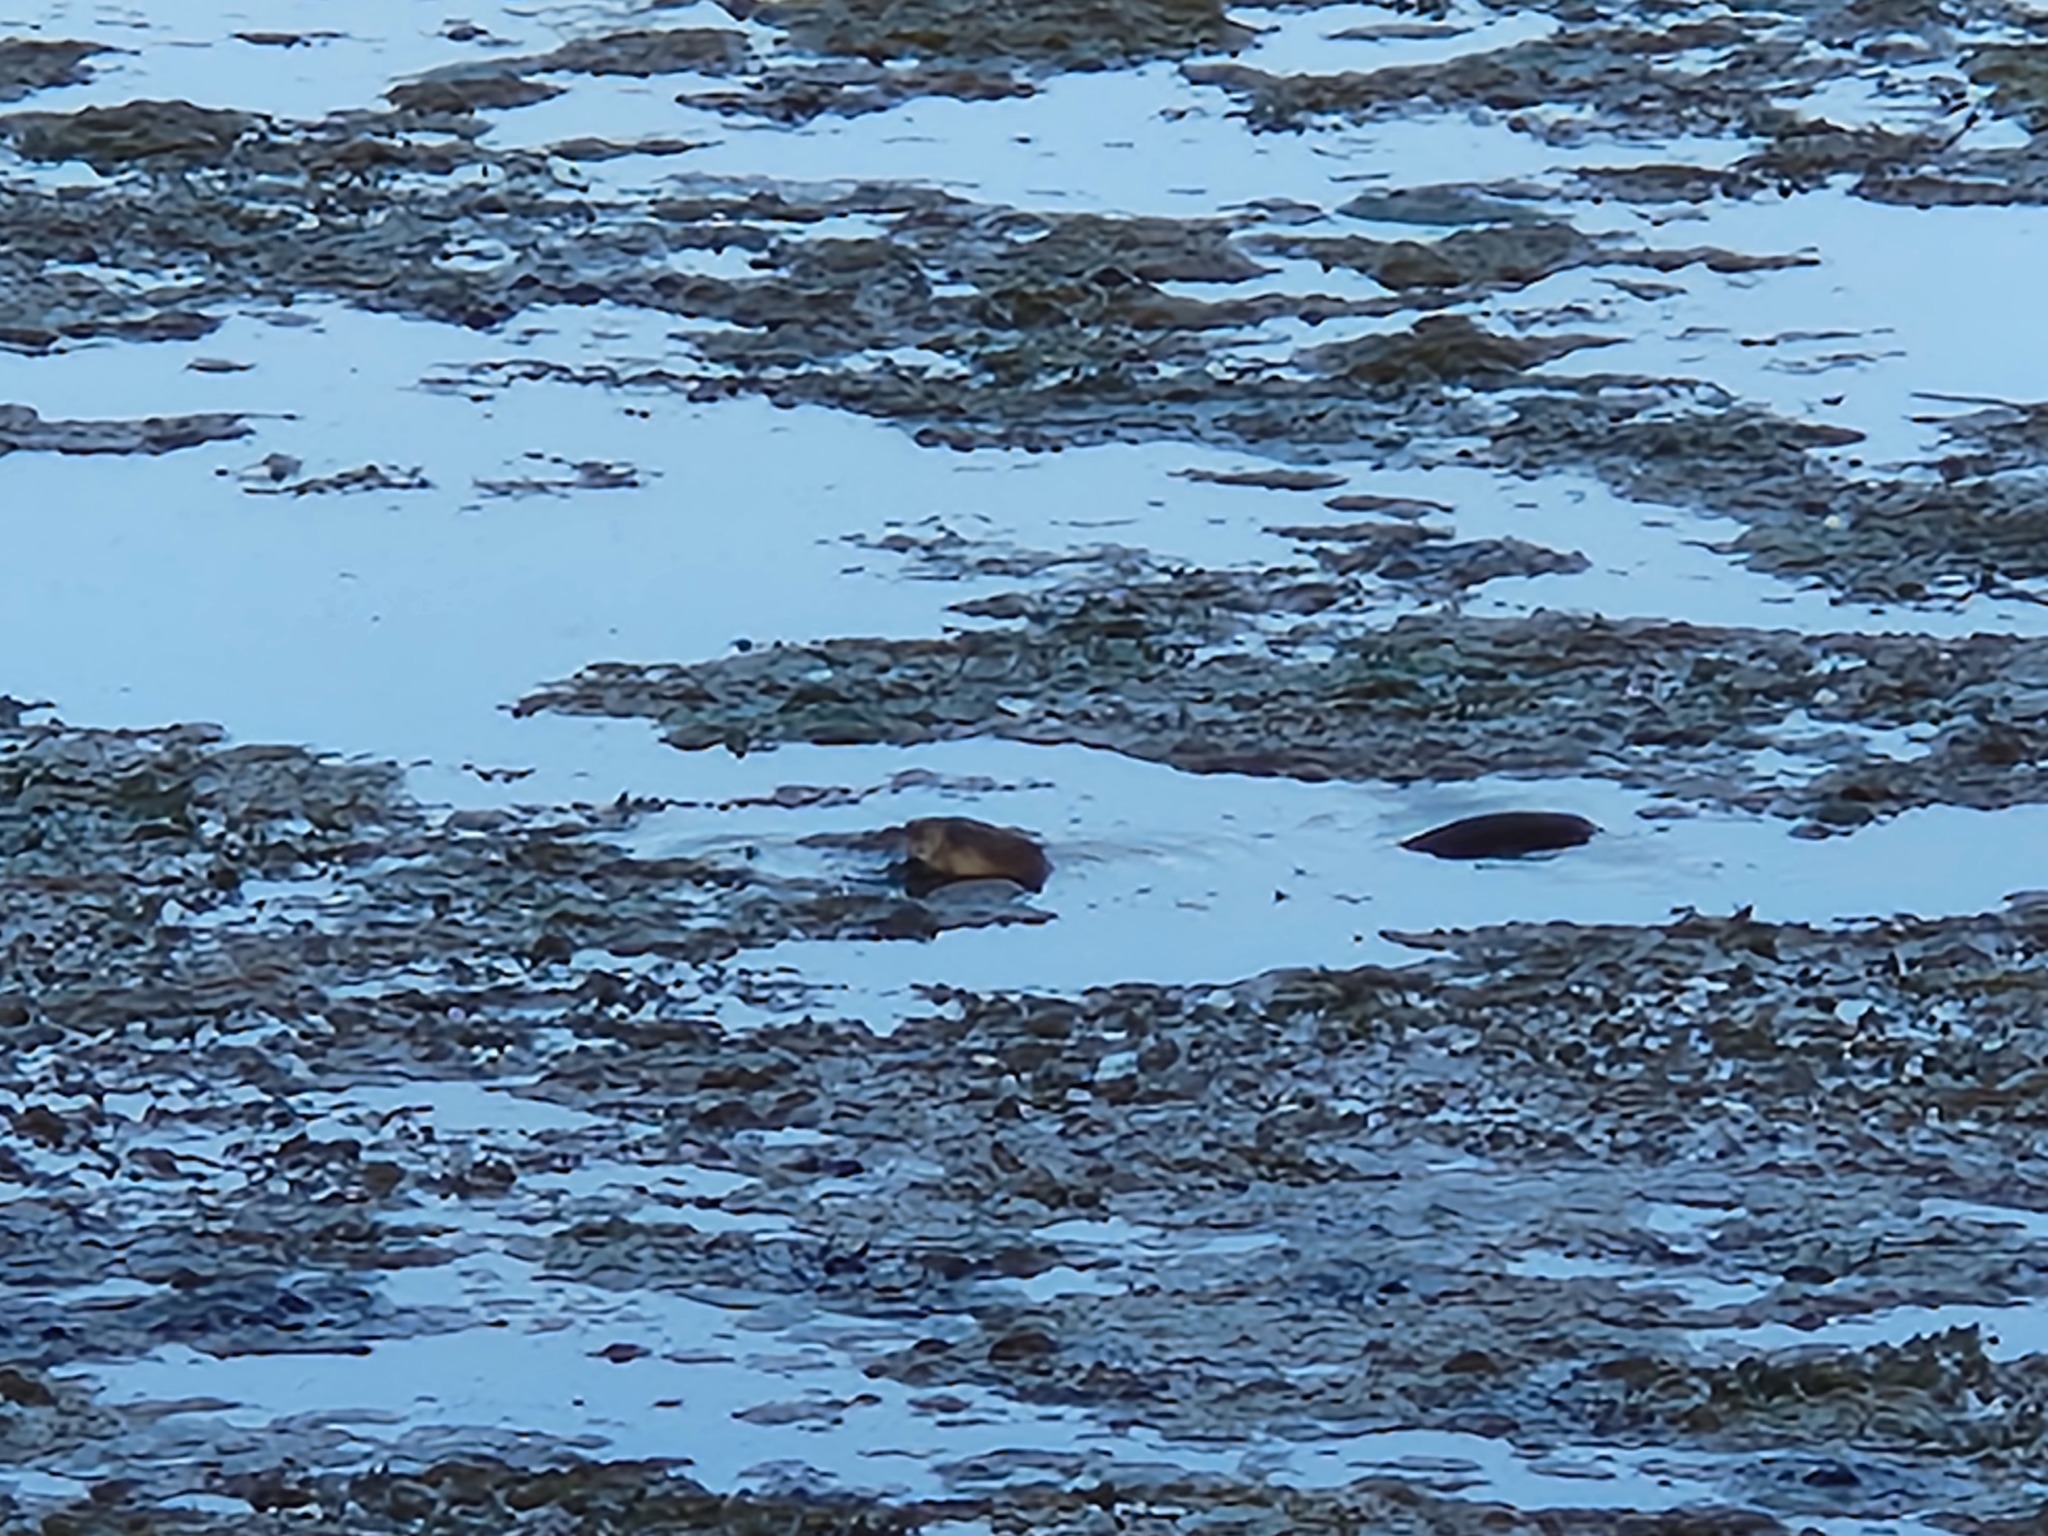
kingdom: Animalia
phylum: Chordata
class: Mammalia
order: Rodentia
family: Cricetidae
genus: Ondatra
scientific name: Ondatra zibethicus
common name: Muskrat
